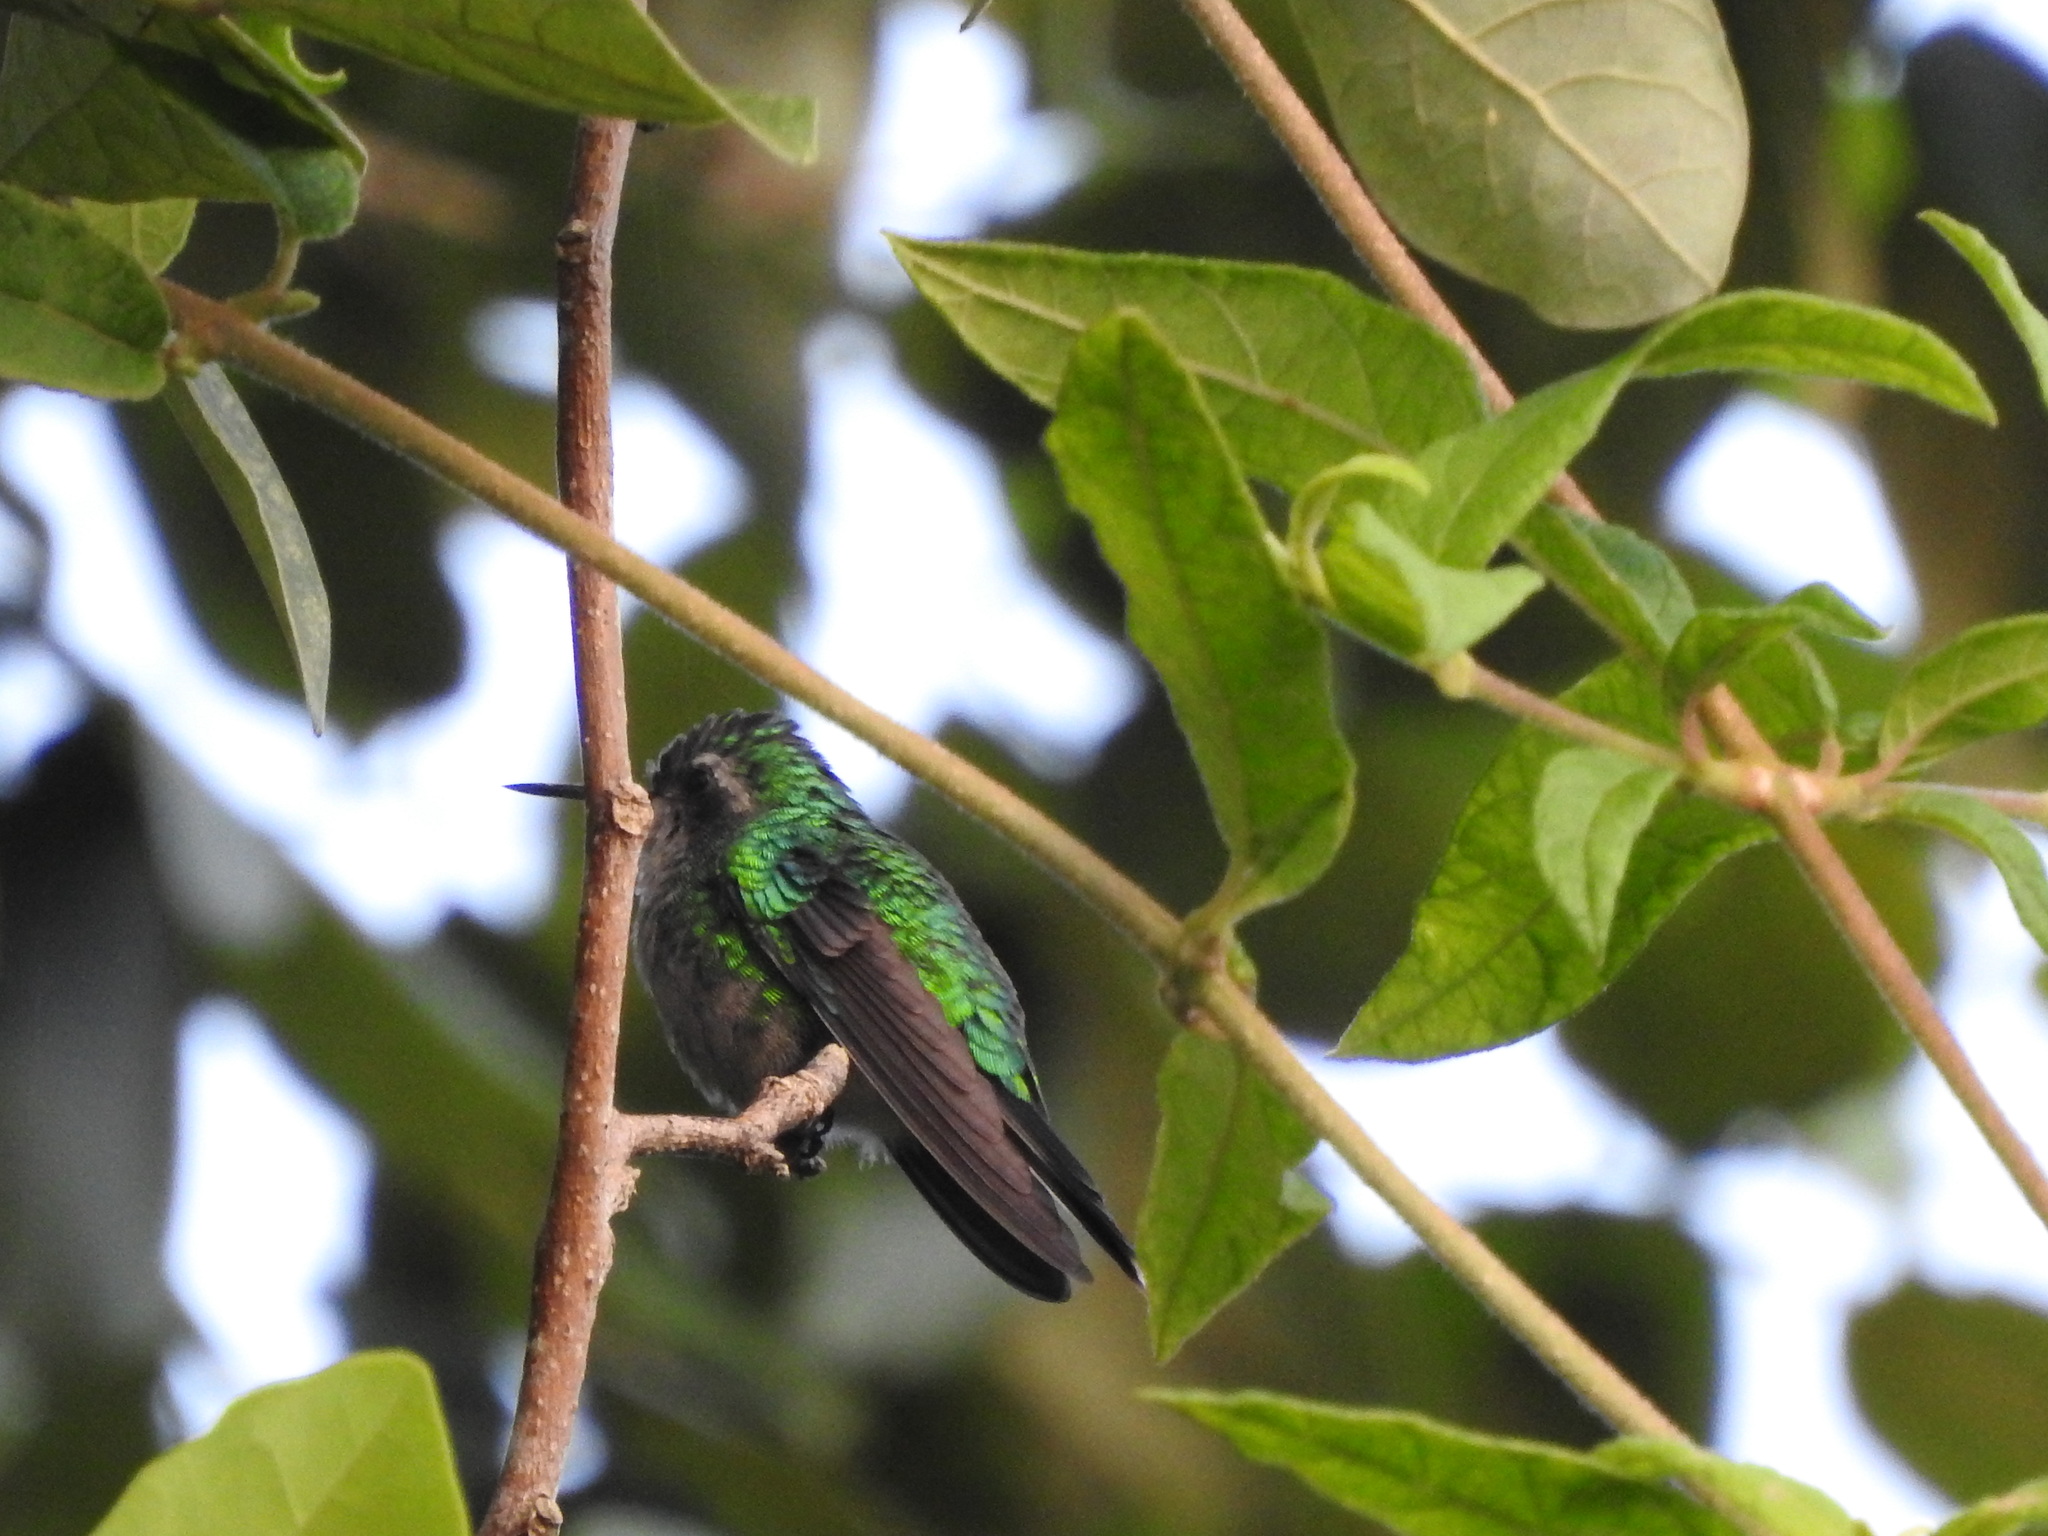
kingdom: Animalia
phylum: Chordata
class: Aves
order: Apodiformes
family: Trochilidae
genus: Cynanthus
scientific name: Cynanthus forficatus
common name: Cozumel emerald
